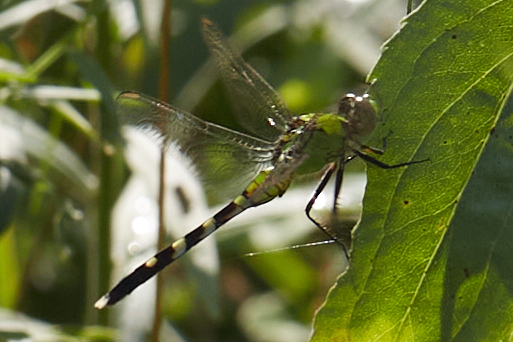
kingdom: Animalia
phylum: Arthropoda
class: Insecta
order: Odonata
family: Libellulidae
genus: Erythemis
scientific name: Erythemis simplicicollis
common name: Eastern pondhawk
